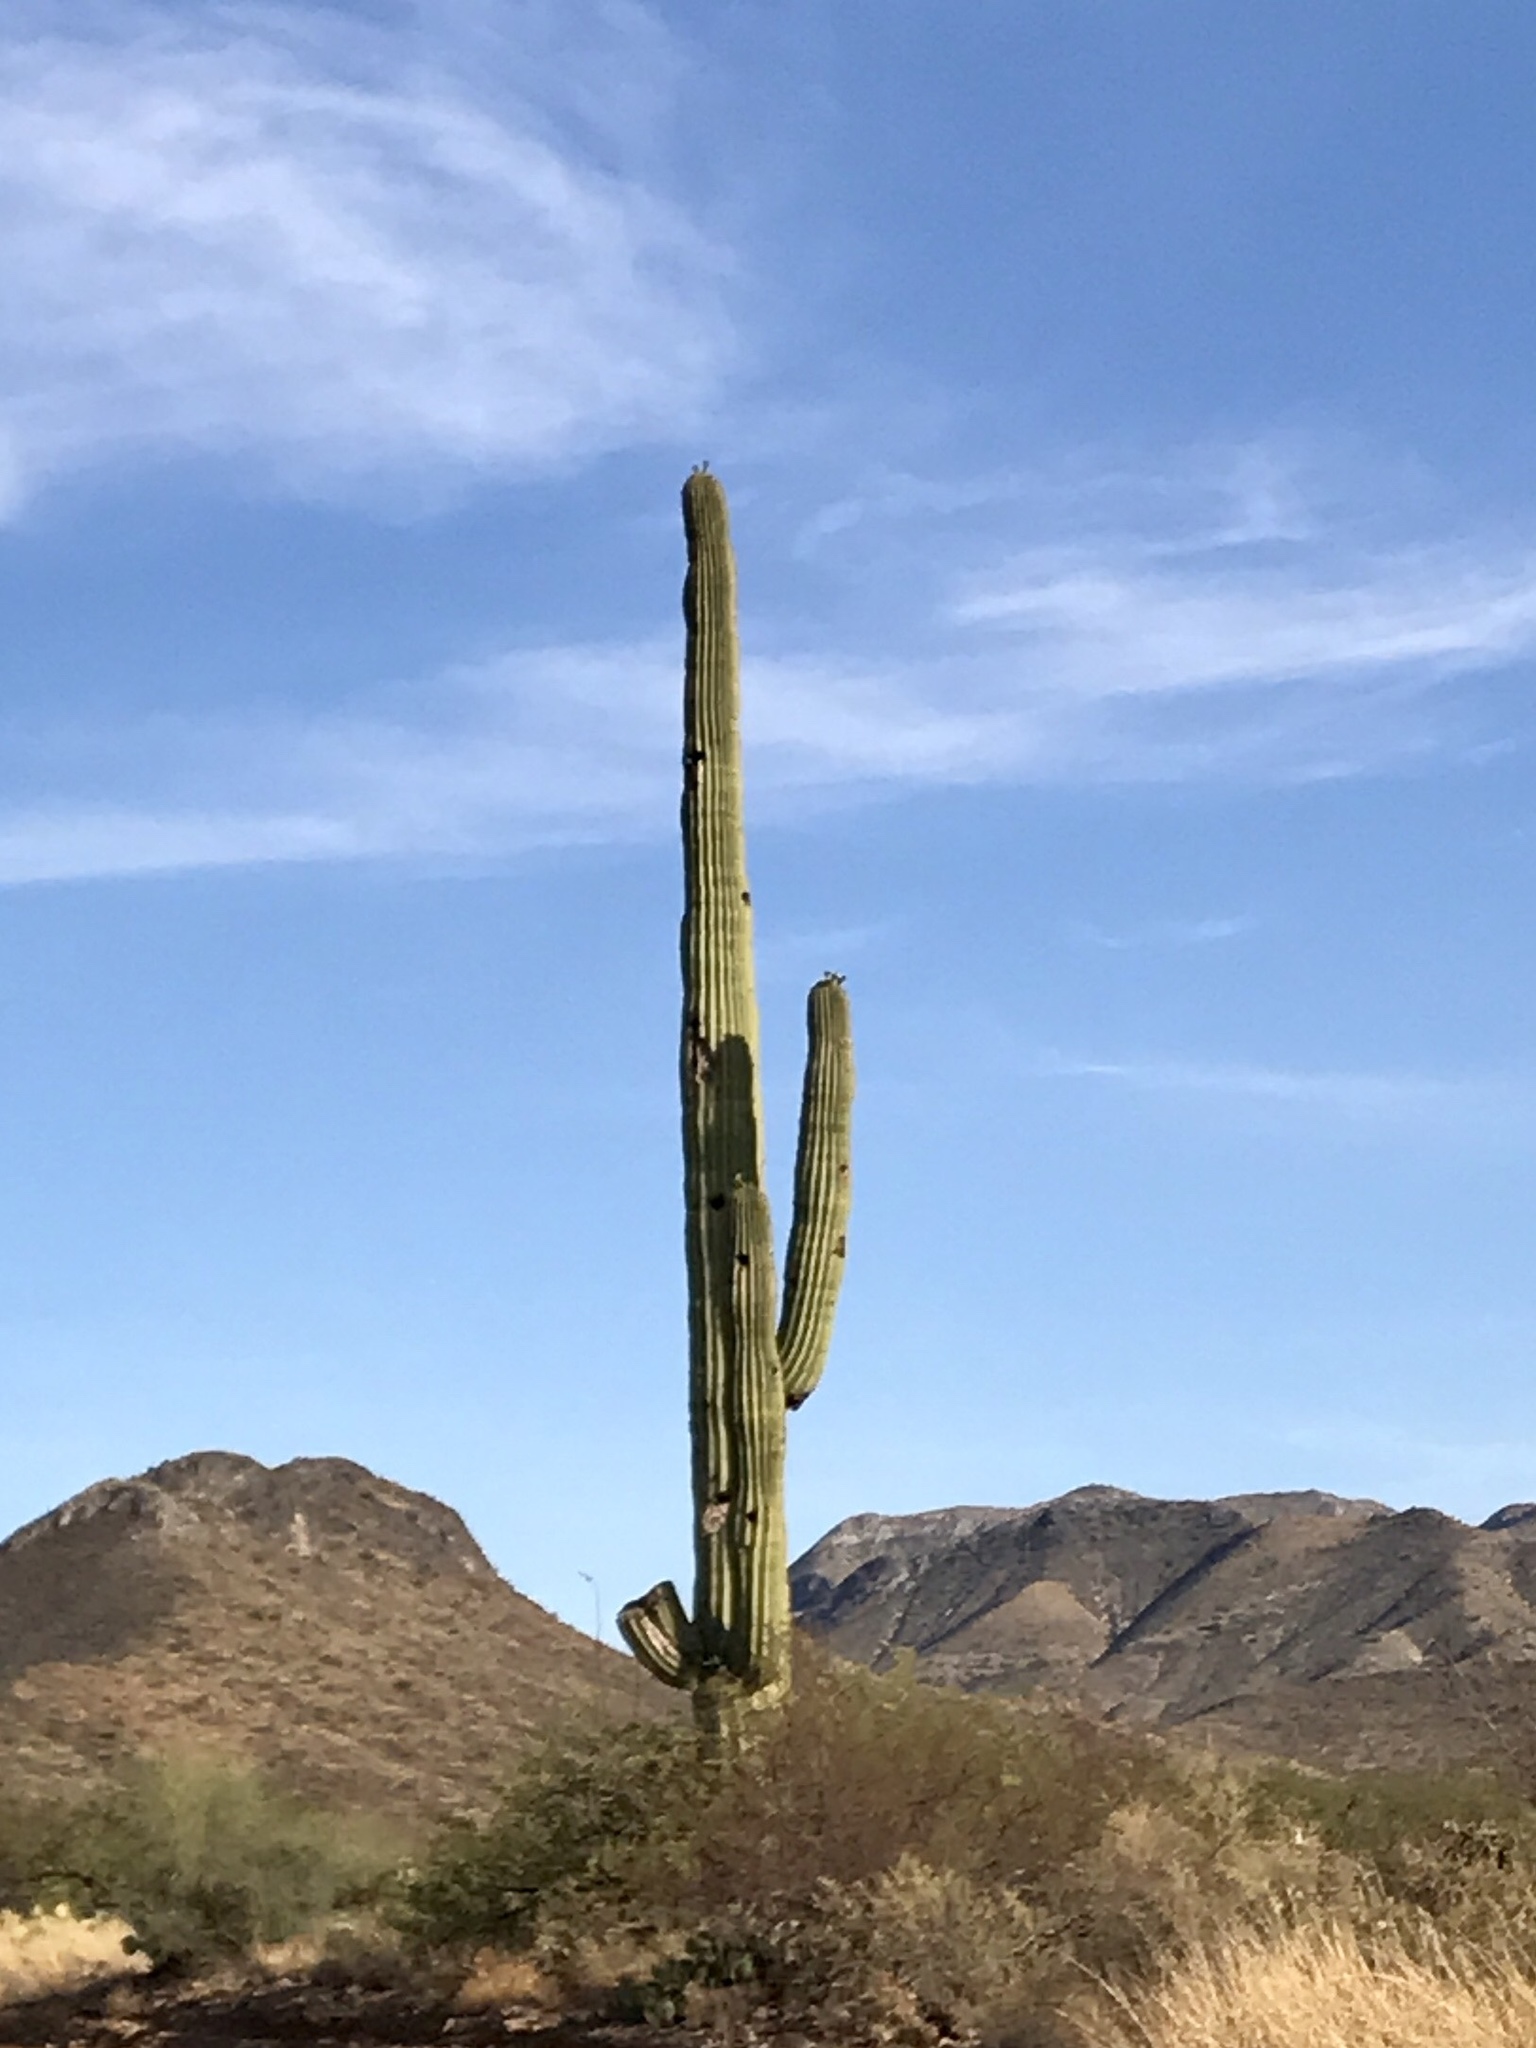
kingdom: Plantae
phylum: Tracheophyta
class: Magnoliopsida
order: Caryophyllales
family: Cactaceae
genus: Carnegiea
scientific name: Carnegiea gigantea
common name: Saguaro
